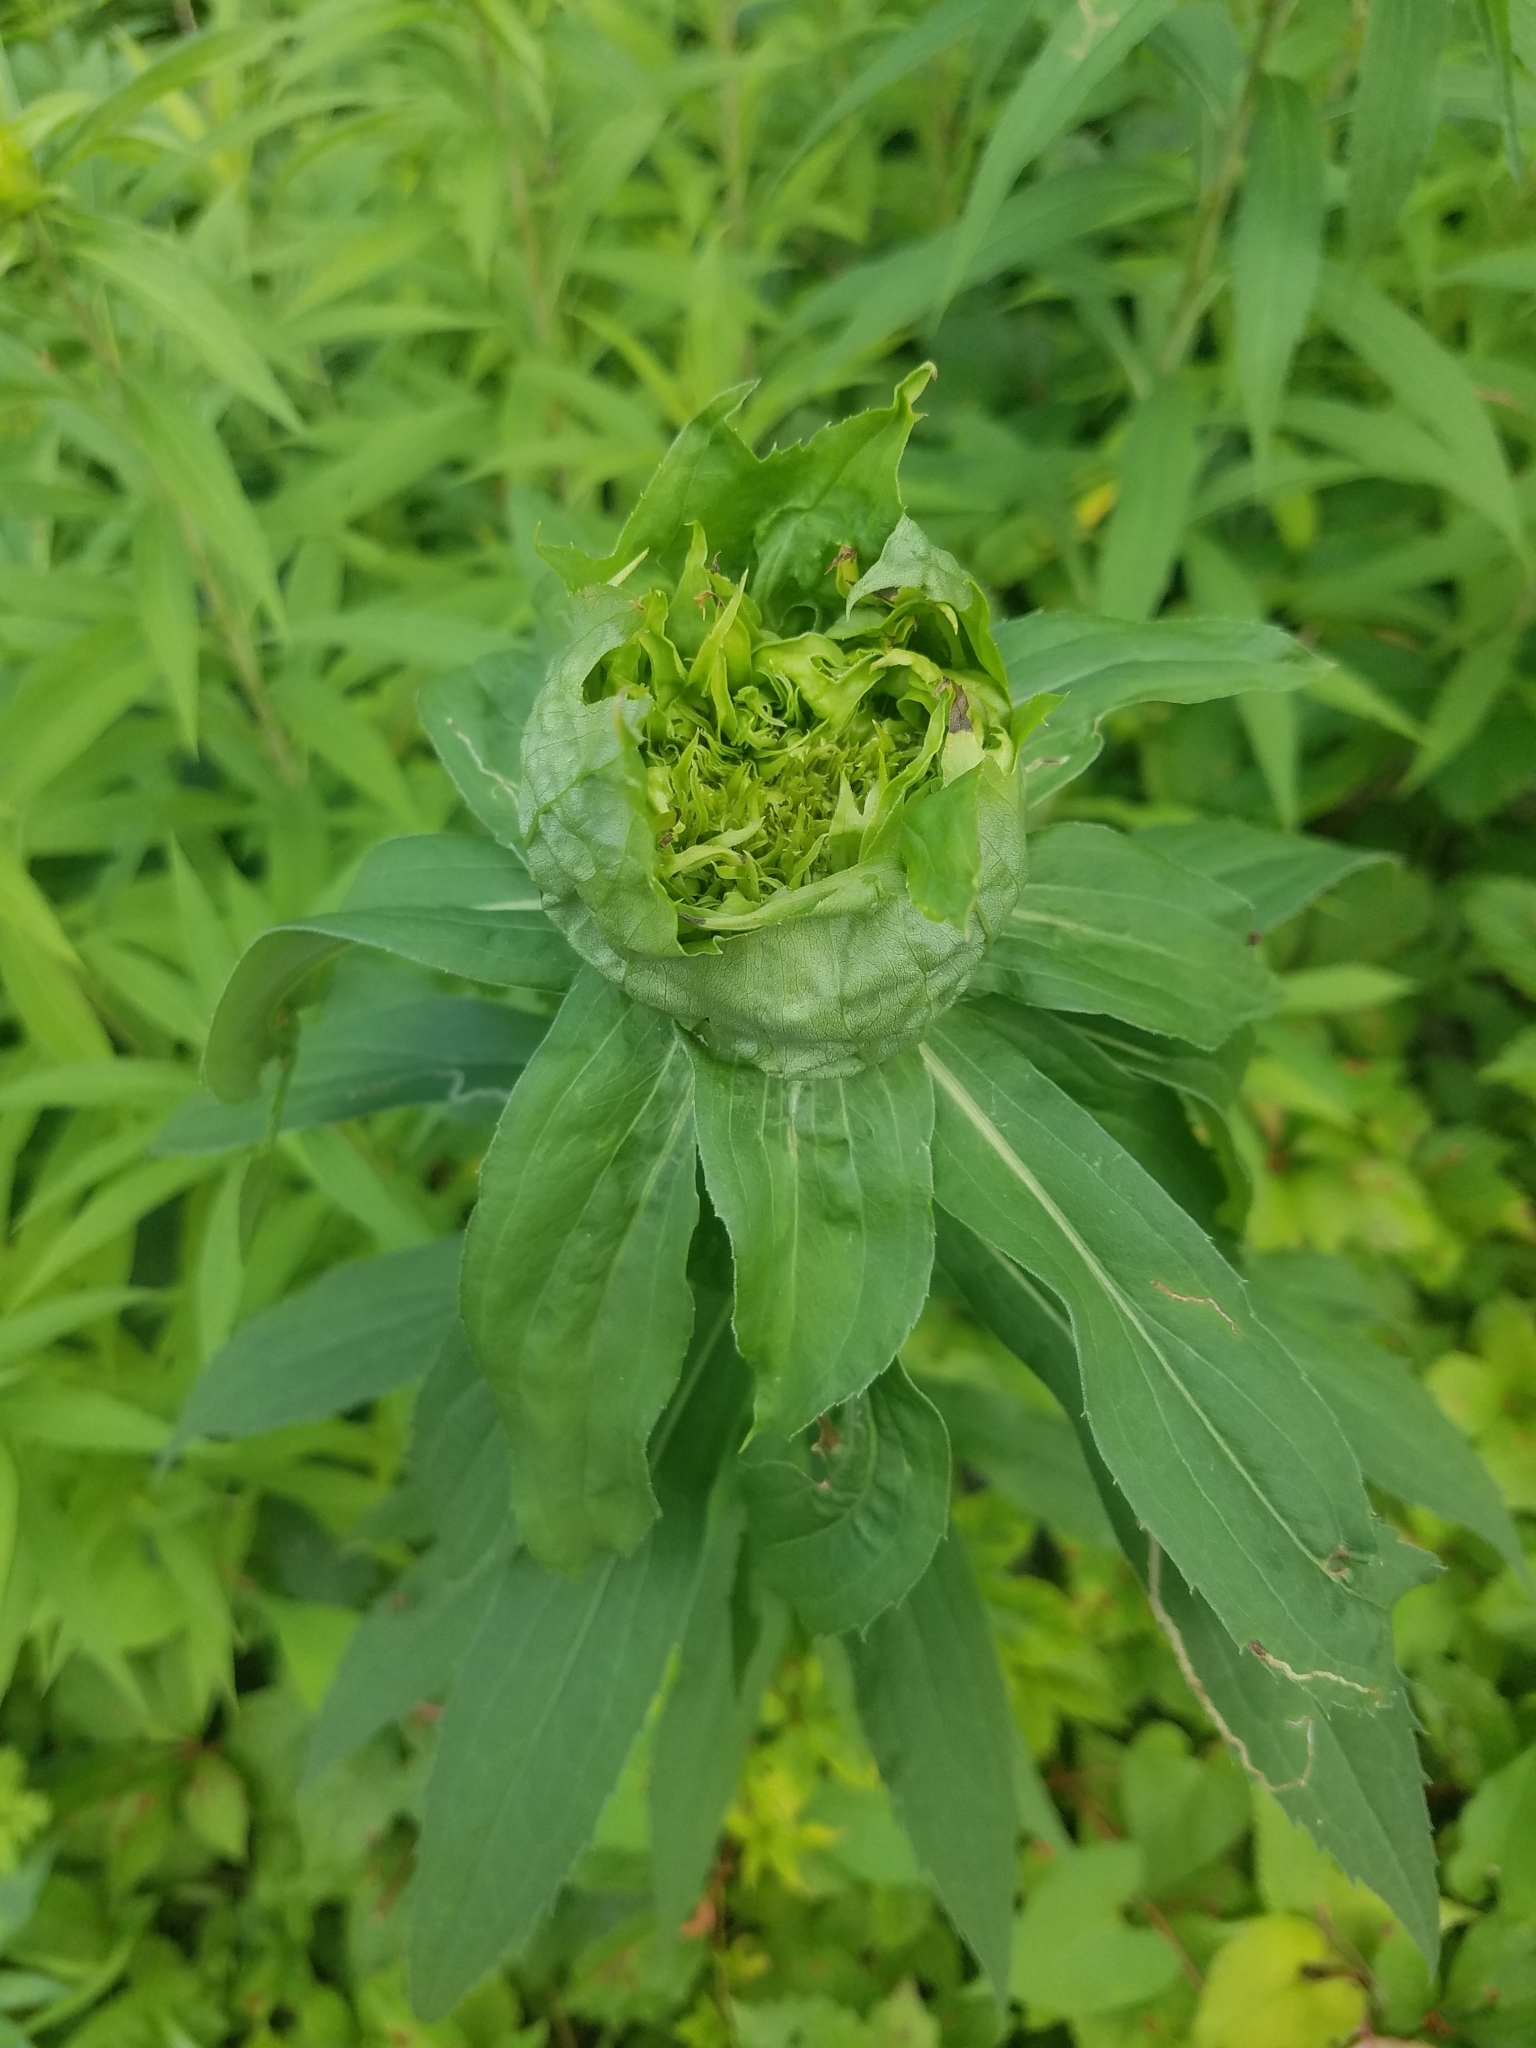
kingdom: Animalia
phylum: Arthropoda
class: Insecta
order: Diptera
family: Cecidomyiidae
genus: Rhopalomyia
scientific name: Rhopalomyia capitata
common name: Giant goldenrod bunch gall midge
